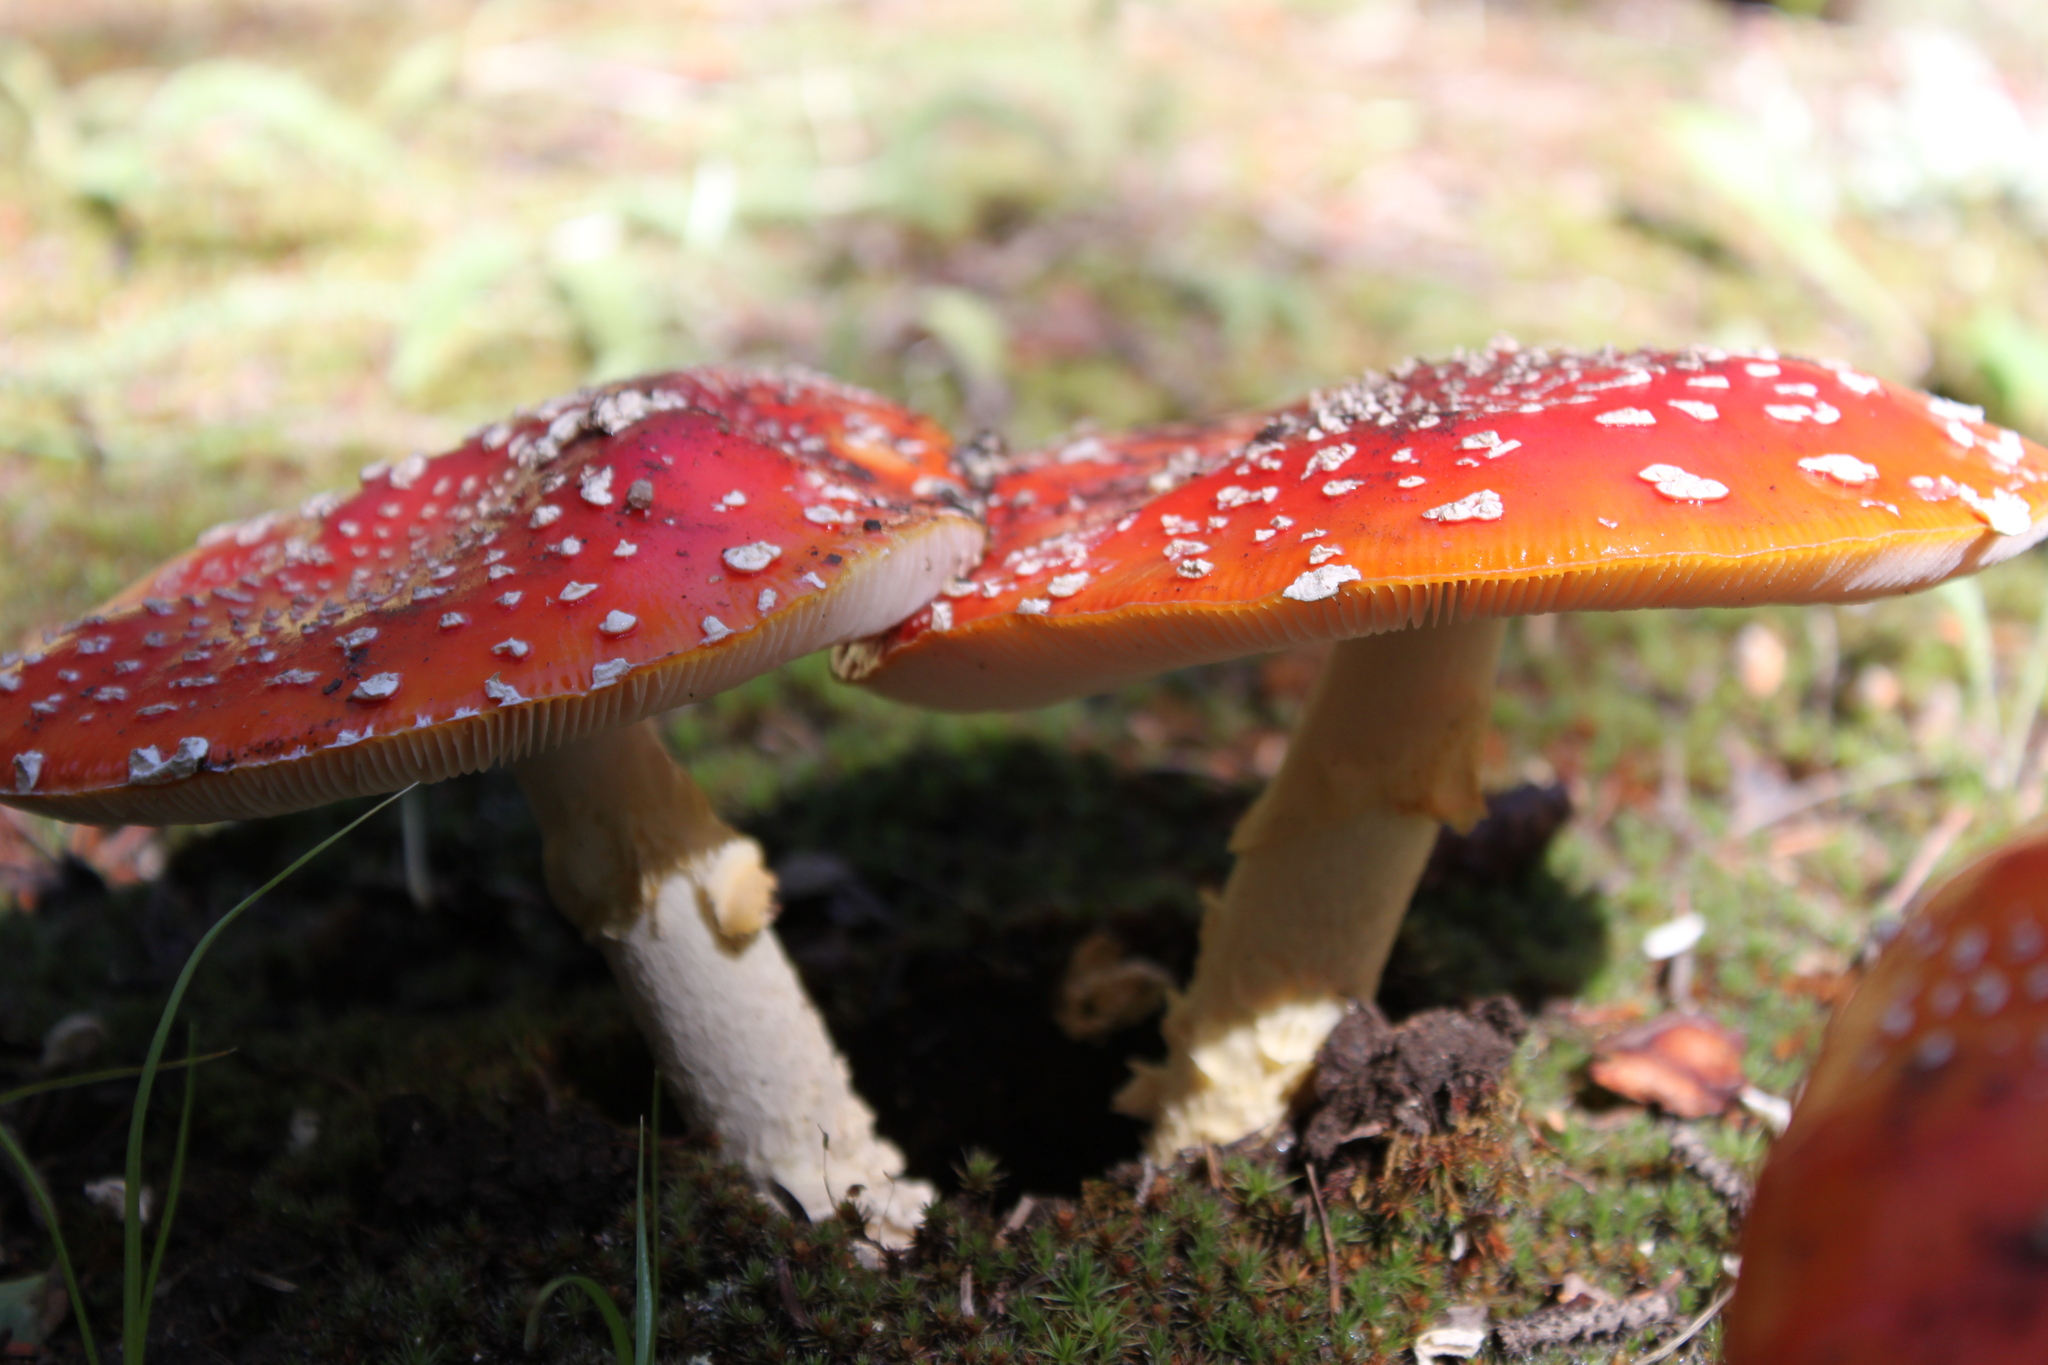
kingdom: Fungi
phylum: Basidiomycota
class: Agaricomycetes
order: Agaricales
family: Amanitaceae
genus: Amanita
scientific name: Amanita muscaria
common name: Fly agaric
